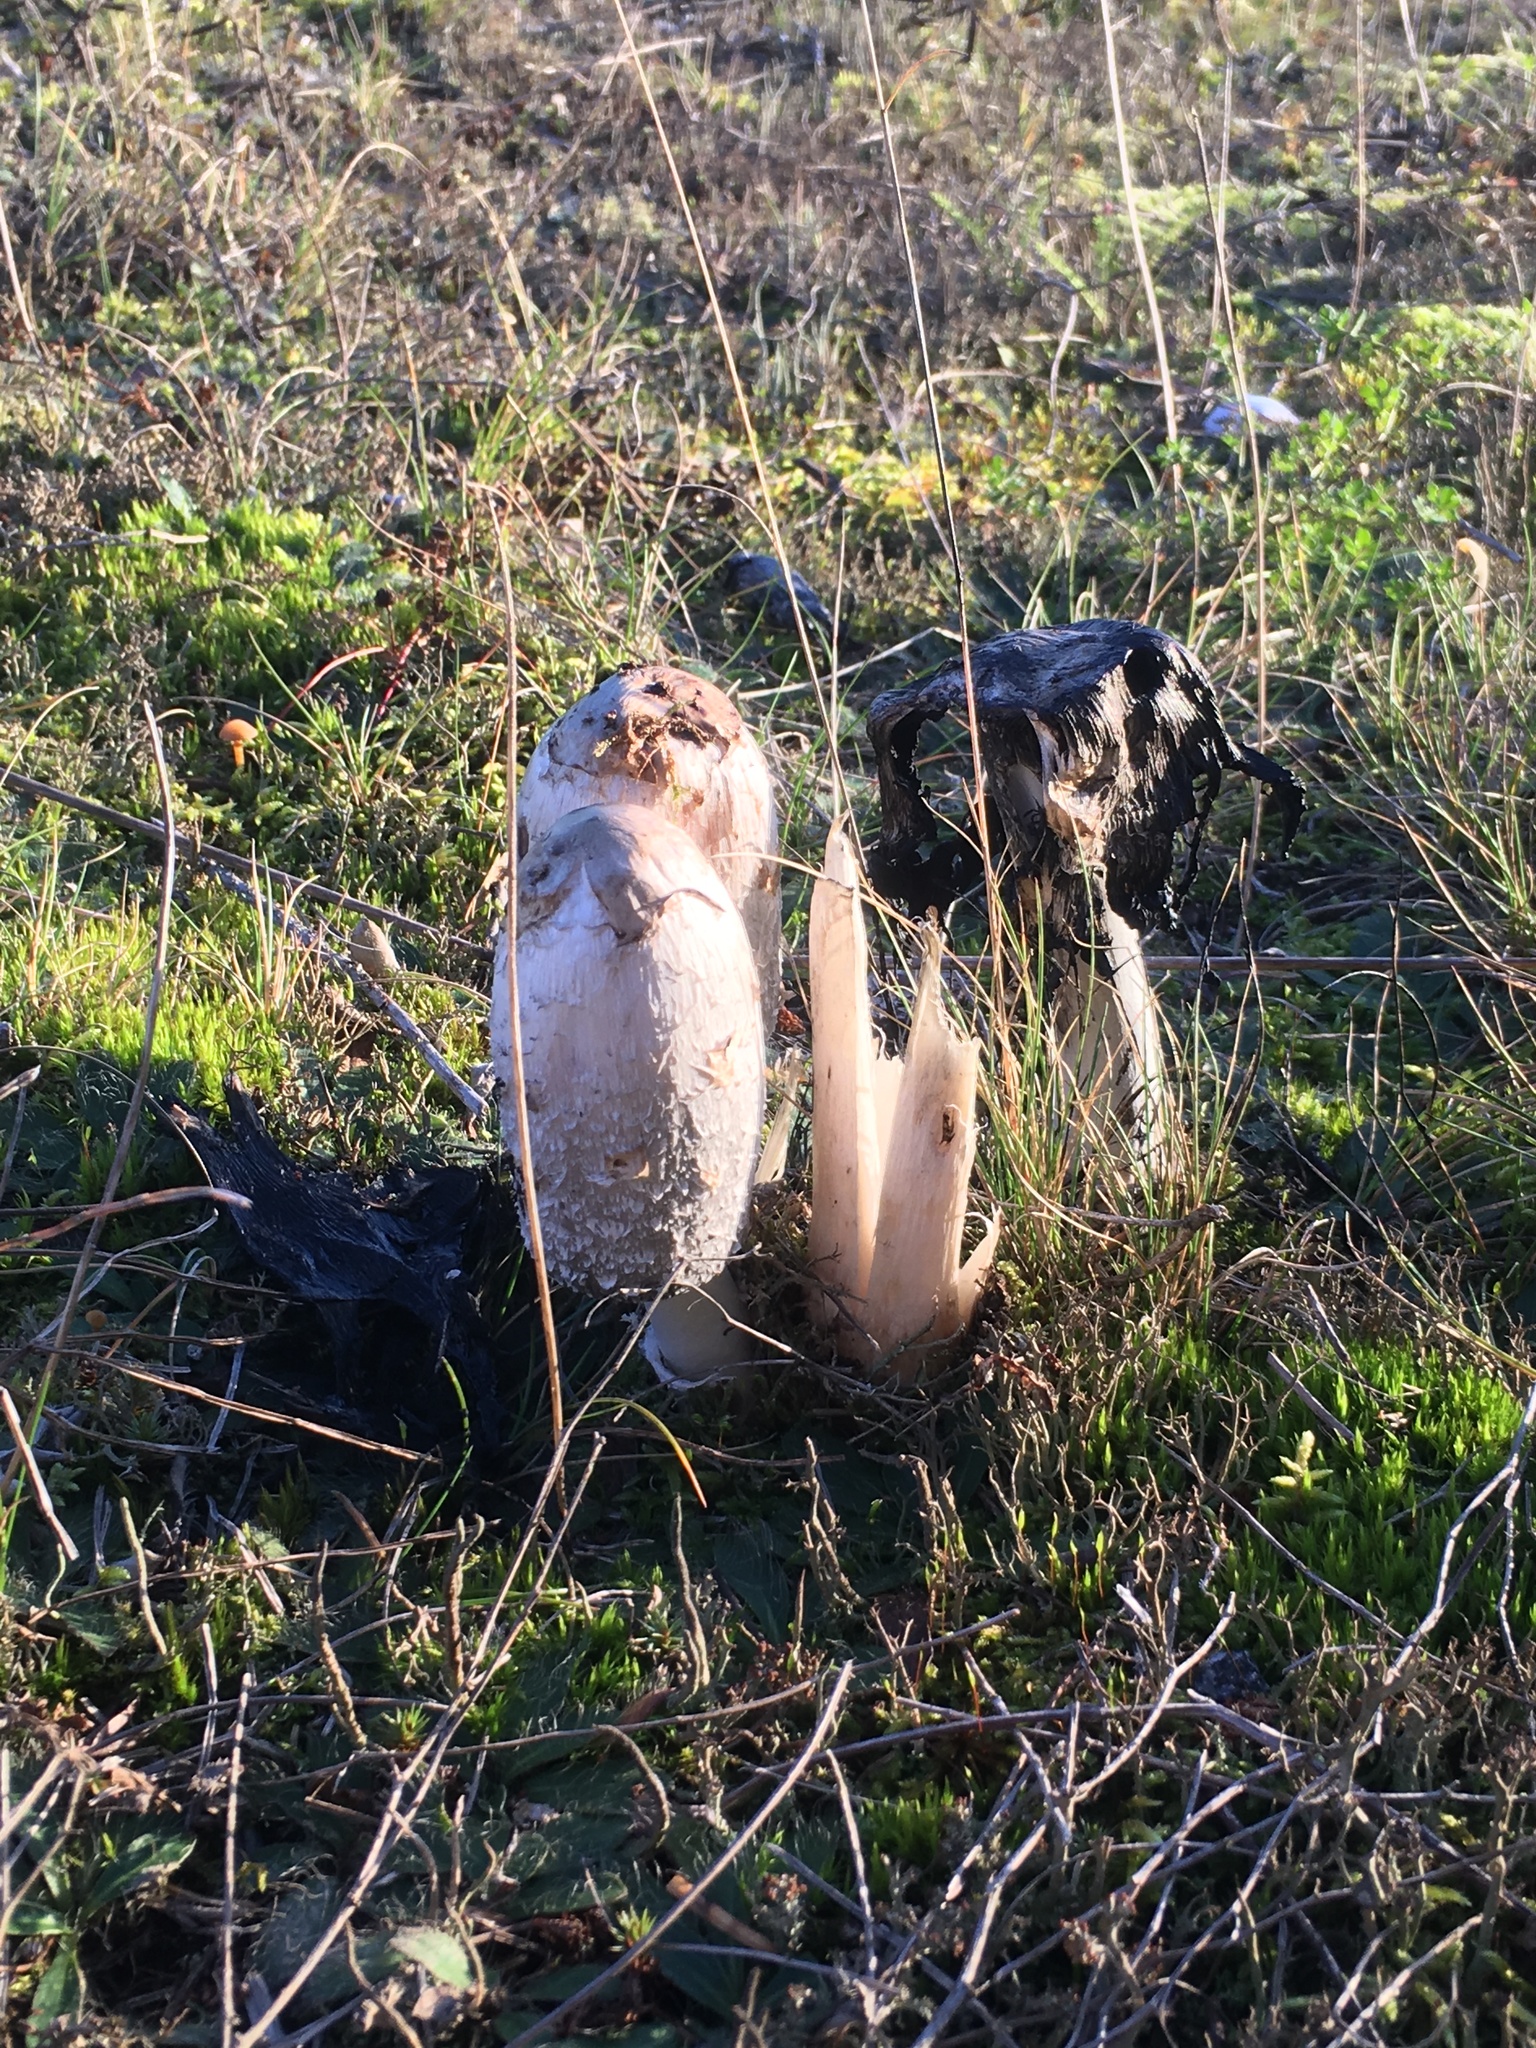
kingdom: Fungi
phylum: Basidiomycota
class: Agaricomycetes
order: Agaricales
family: Agaricaceae
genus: Coprinus
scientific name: Coprinus comatus
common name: Lawyer's wig
